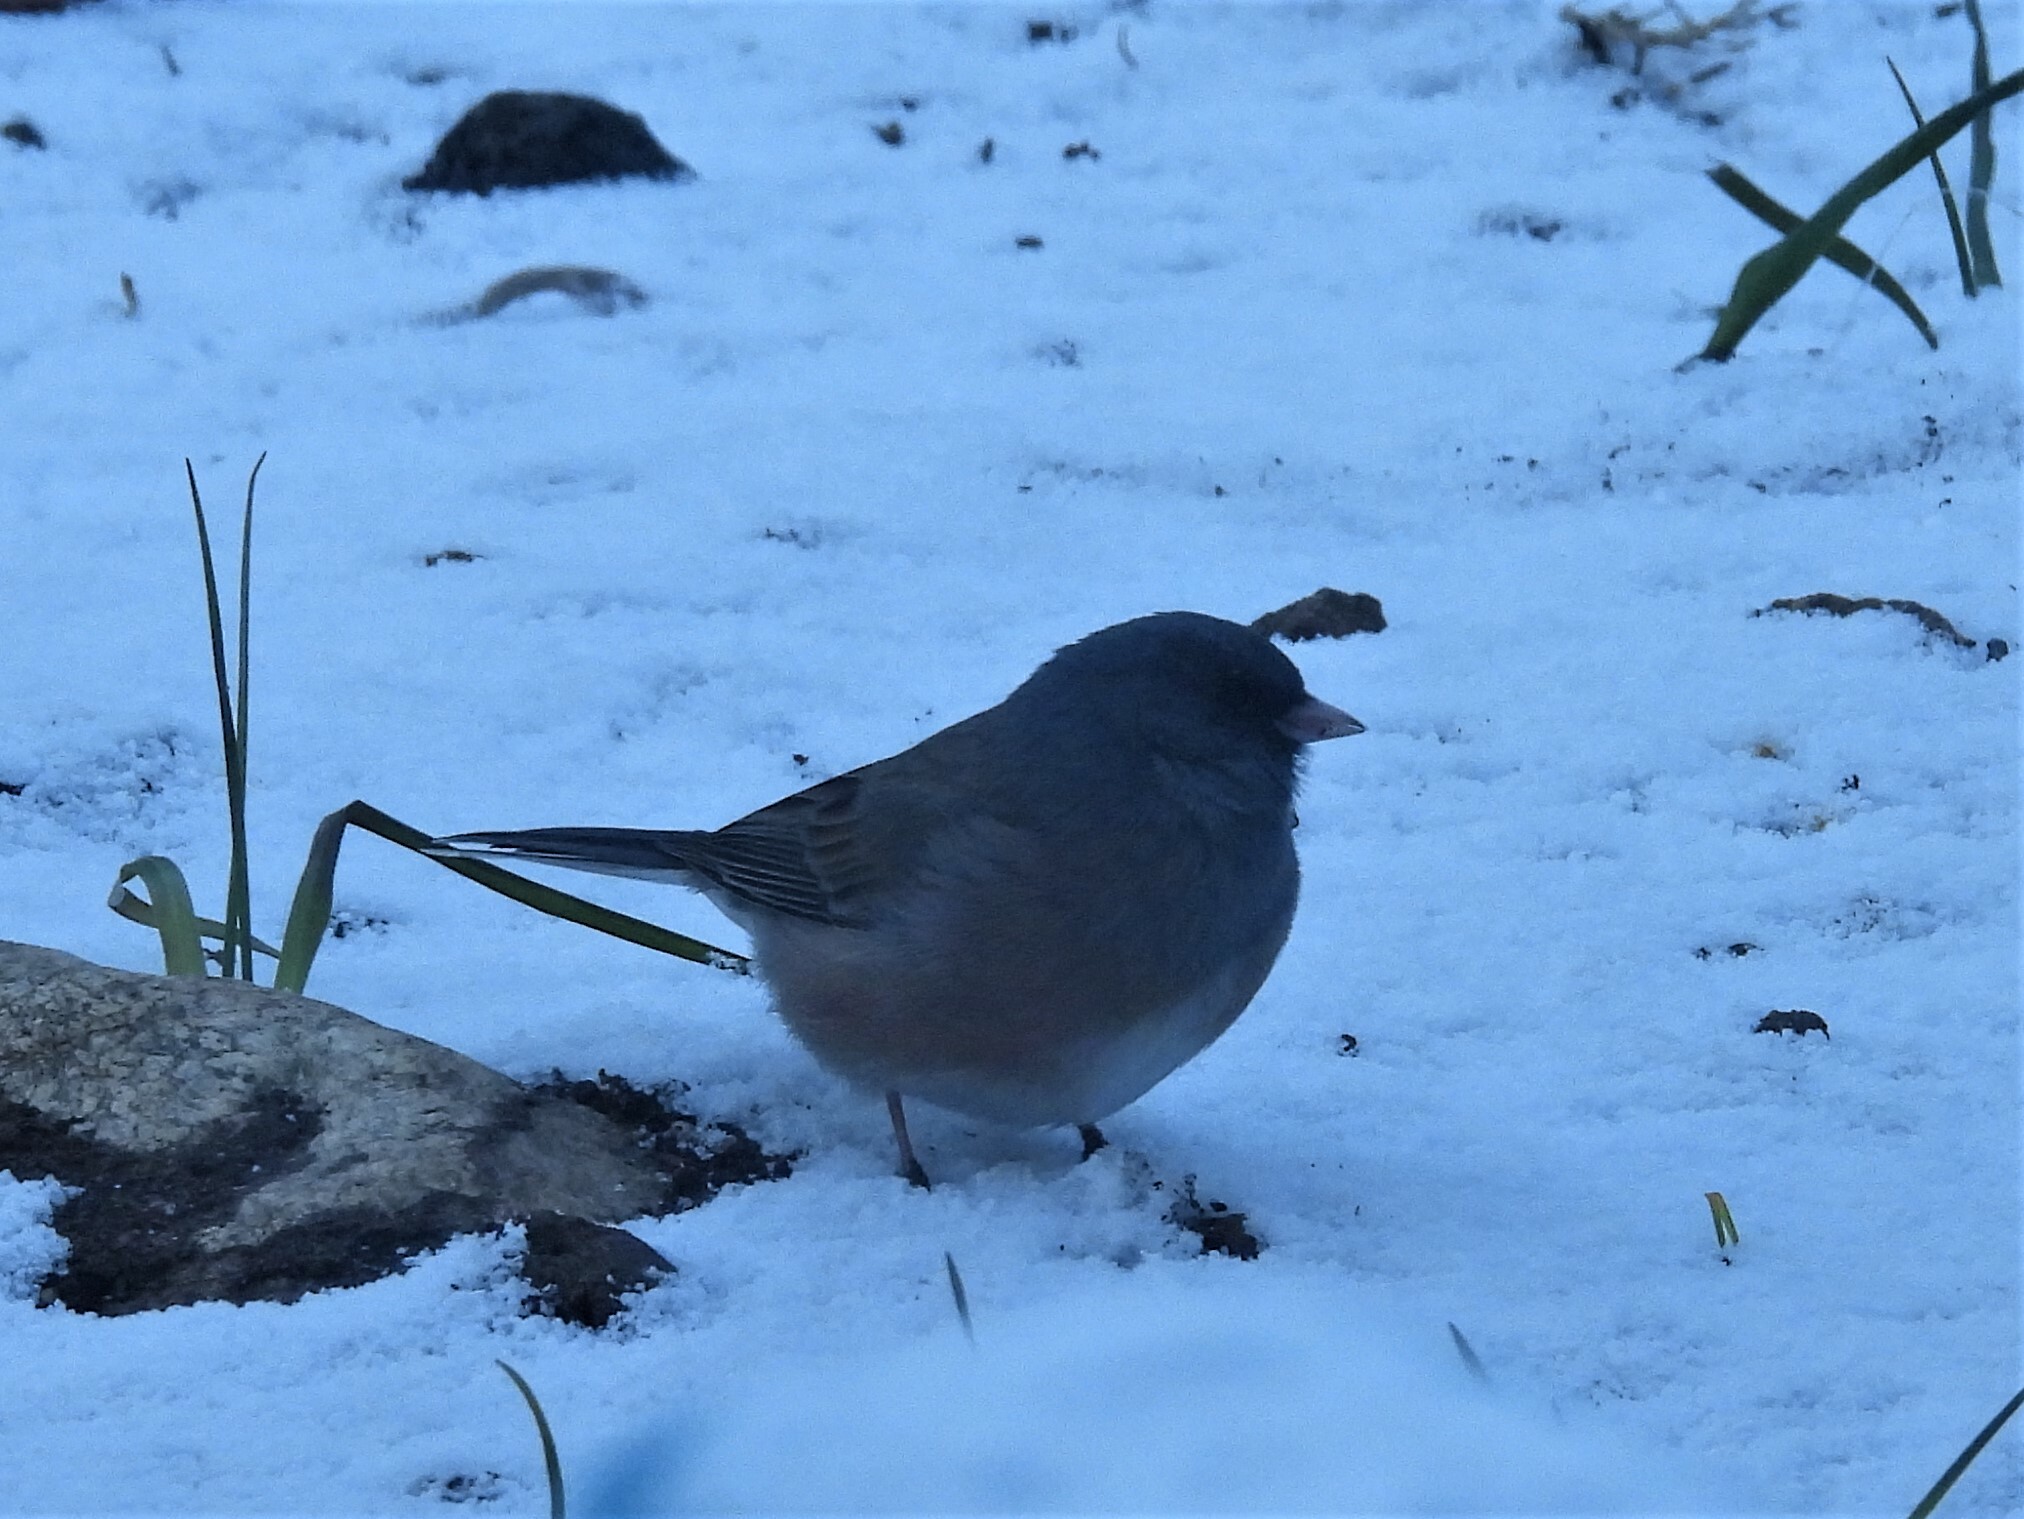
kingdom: Animalia
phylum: Chordata
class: Aves
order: Passeriformes
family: Passerellidae
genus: Junco
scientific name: Junco hyemalis
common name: Dark-eyed junco
